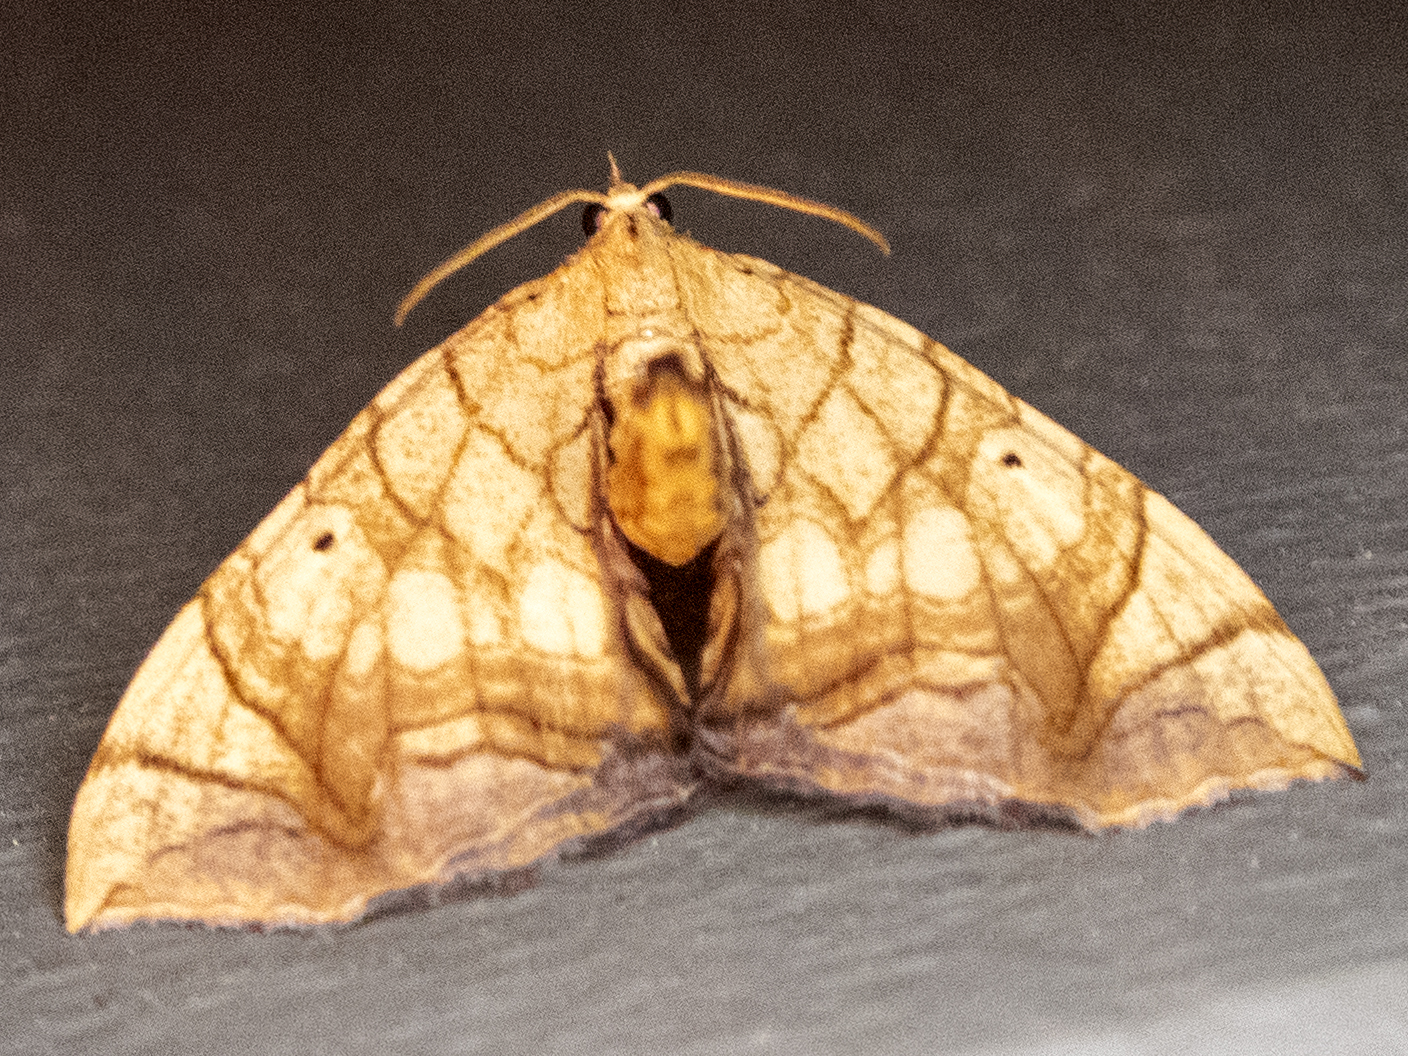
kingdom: Animalia
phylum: Arthropoda
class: Insecta
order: Lepidoptera
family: Geometridae
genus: Eulithis
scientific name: Eulithis gracilineata
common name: Greater grapevine looper moth
